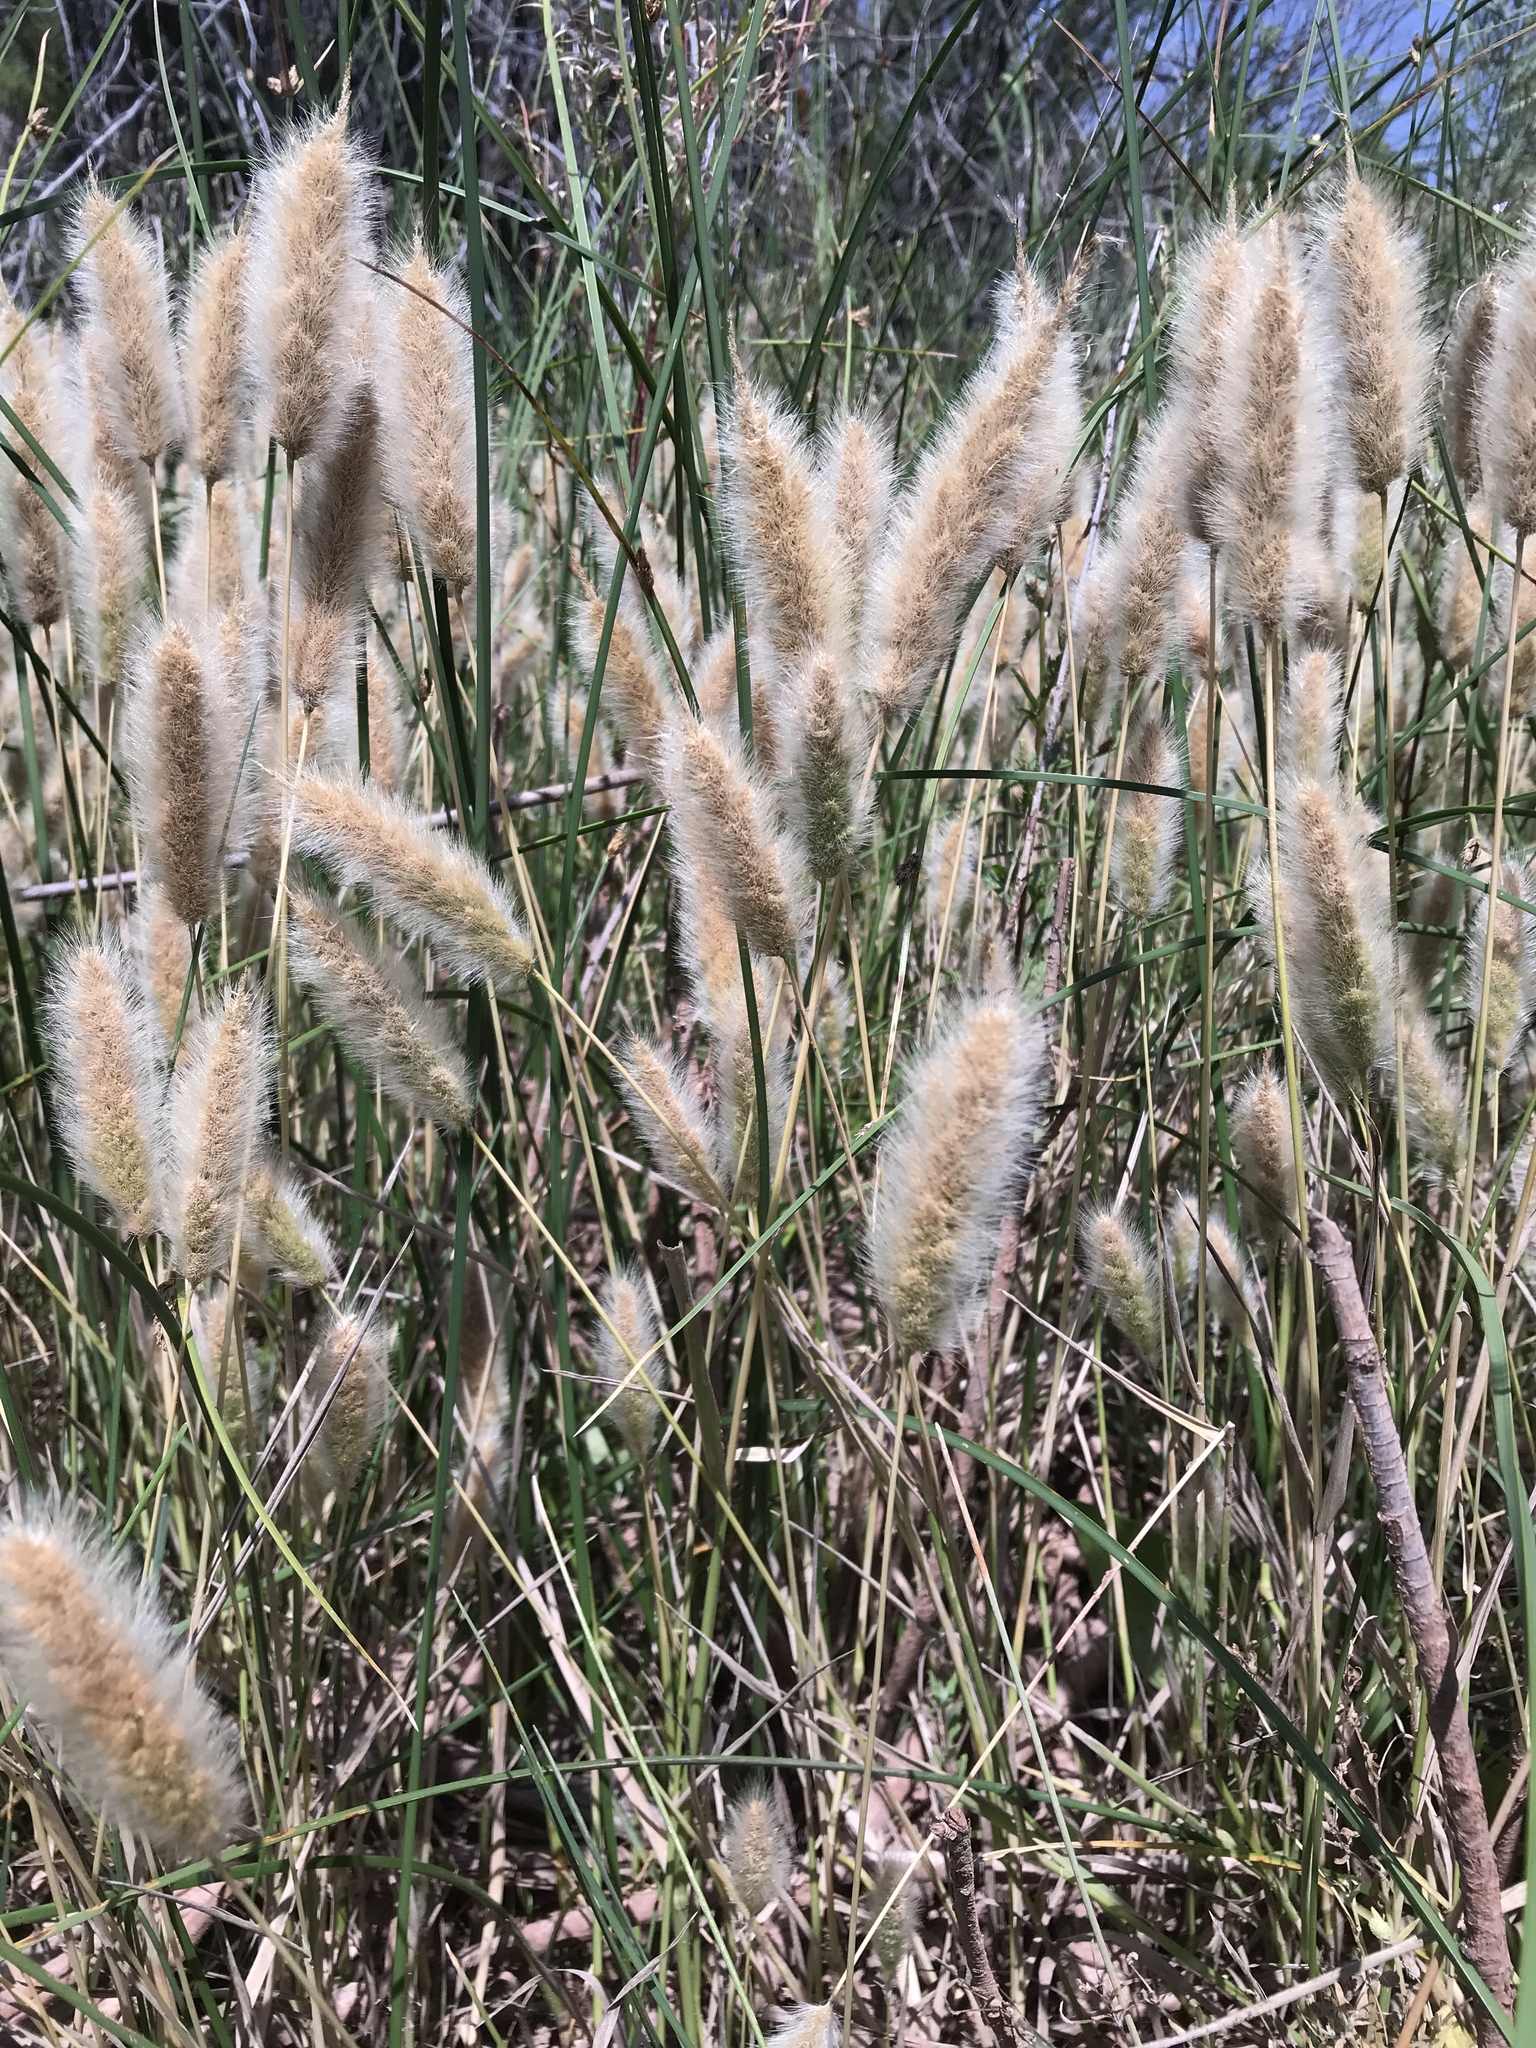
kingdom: Plantae
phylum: Tracheophyta
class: Liliopsida
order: Poales
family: Poaceae
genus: Polypogon
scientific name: Polypogon monspeliensis
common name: Annual rabbitsfoot grass
